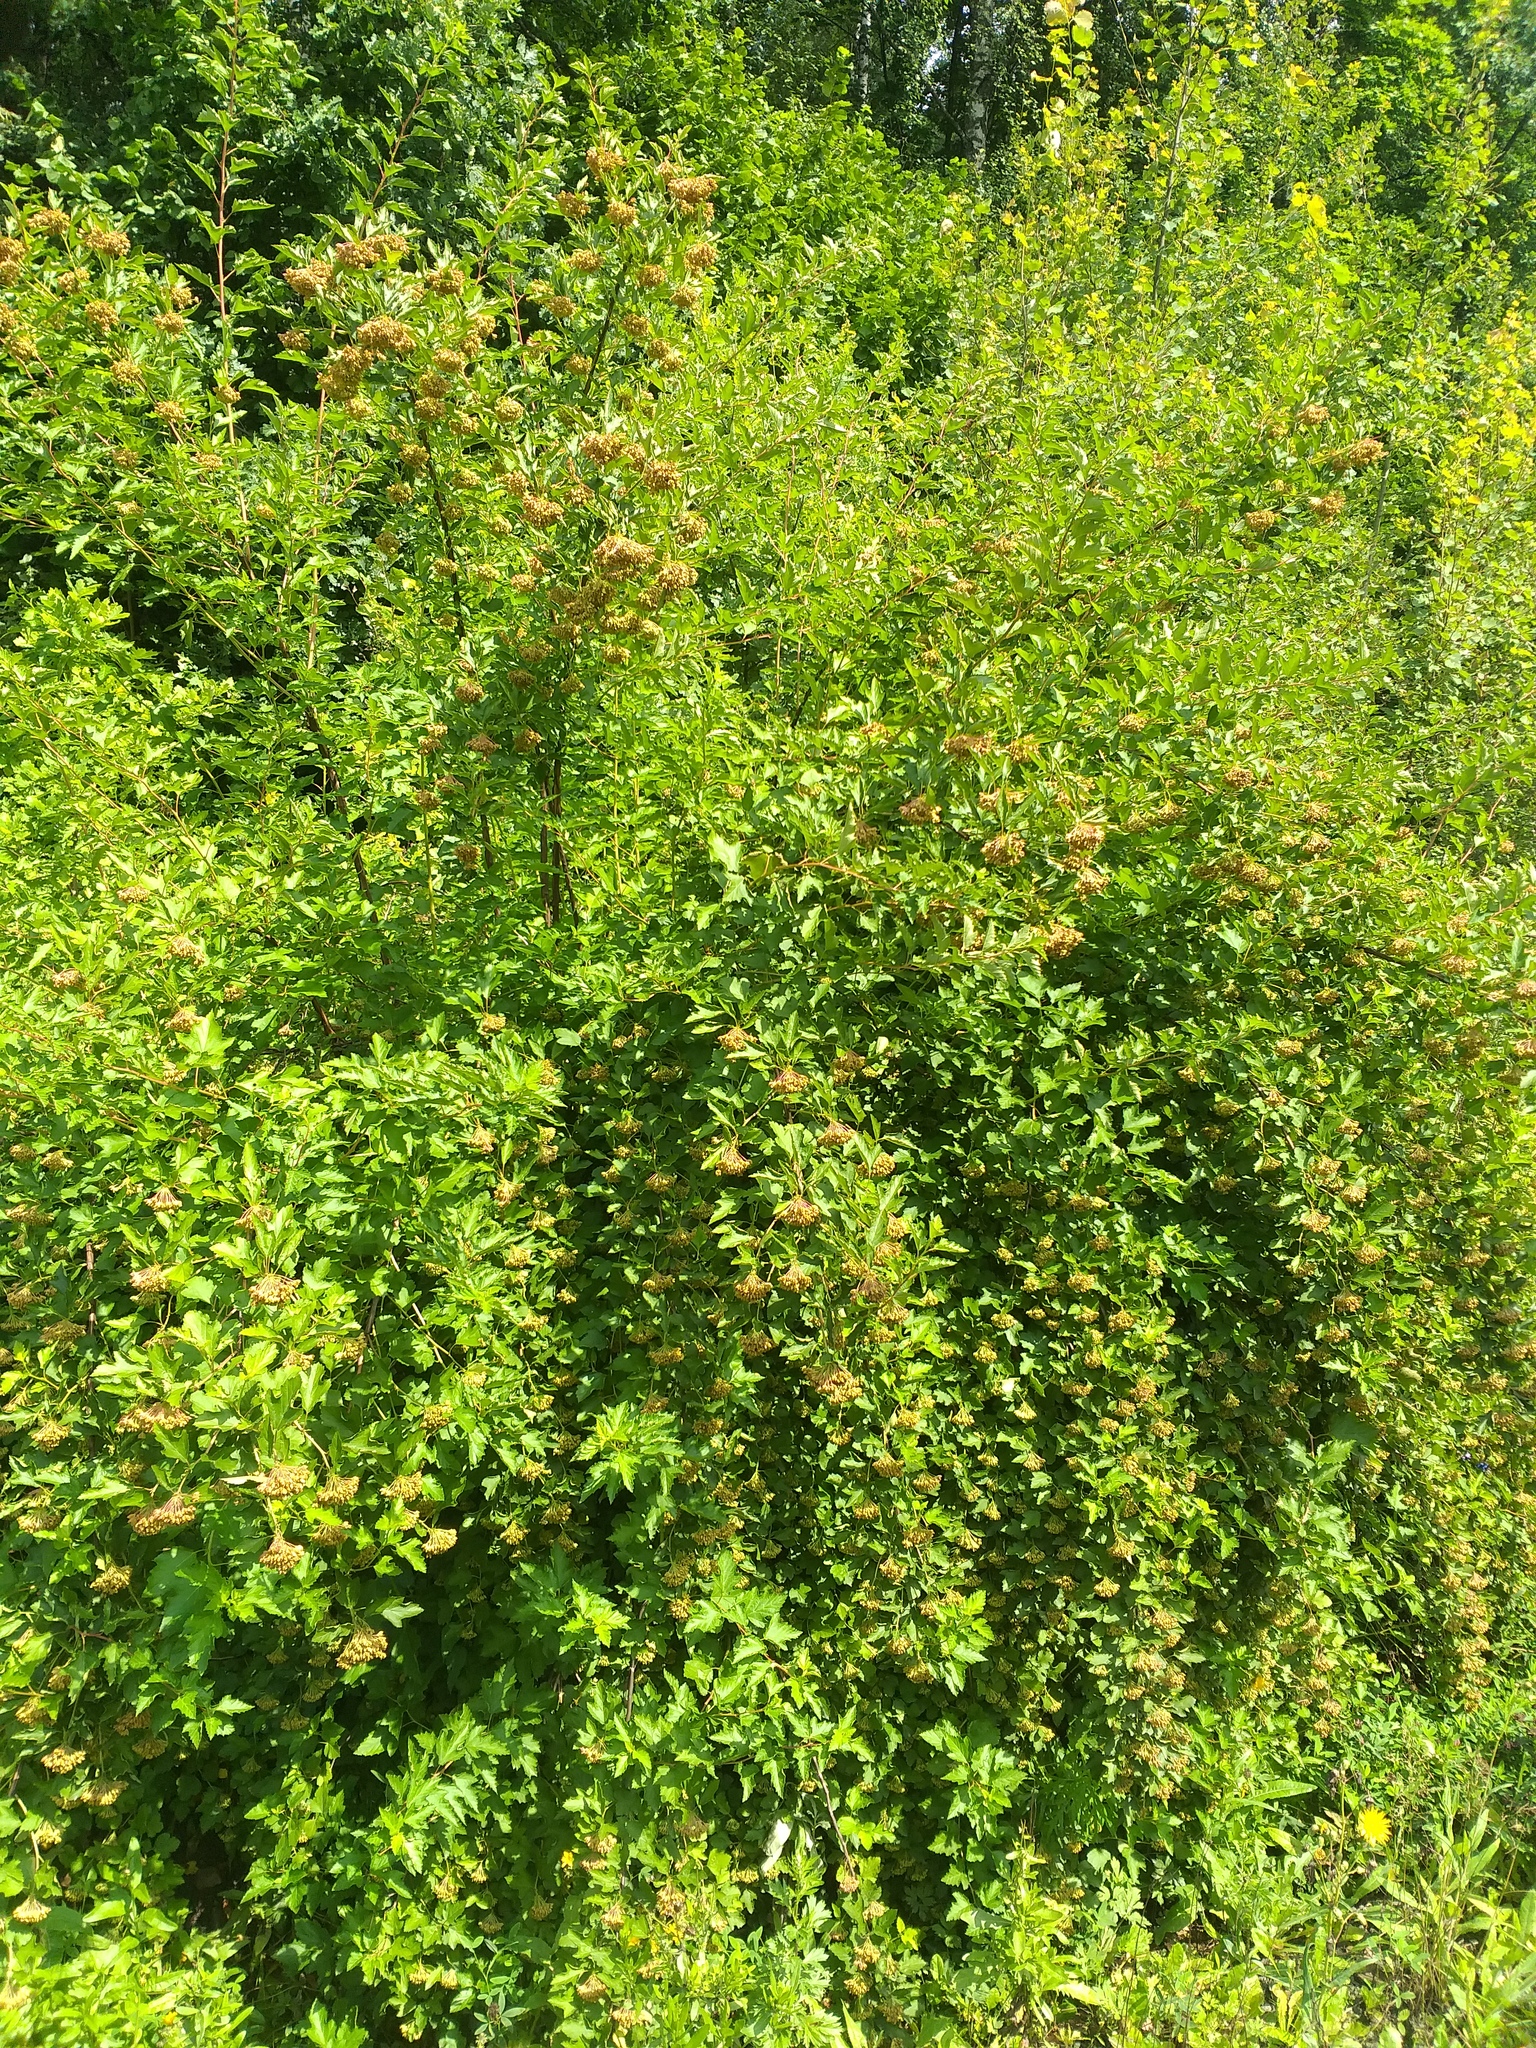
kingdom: Plantae
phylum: Tracheophyta
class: Magnoliopsida
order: Rosales
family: Rosaceae
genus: Physocarpus
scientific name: Physocarpus opulifolius
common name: Ninebark
